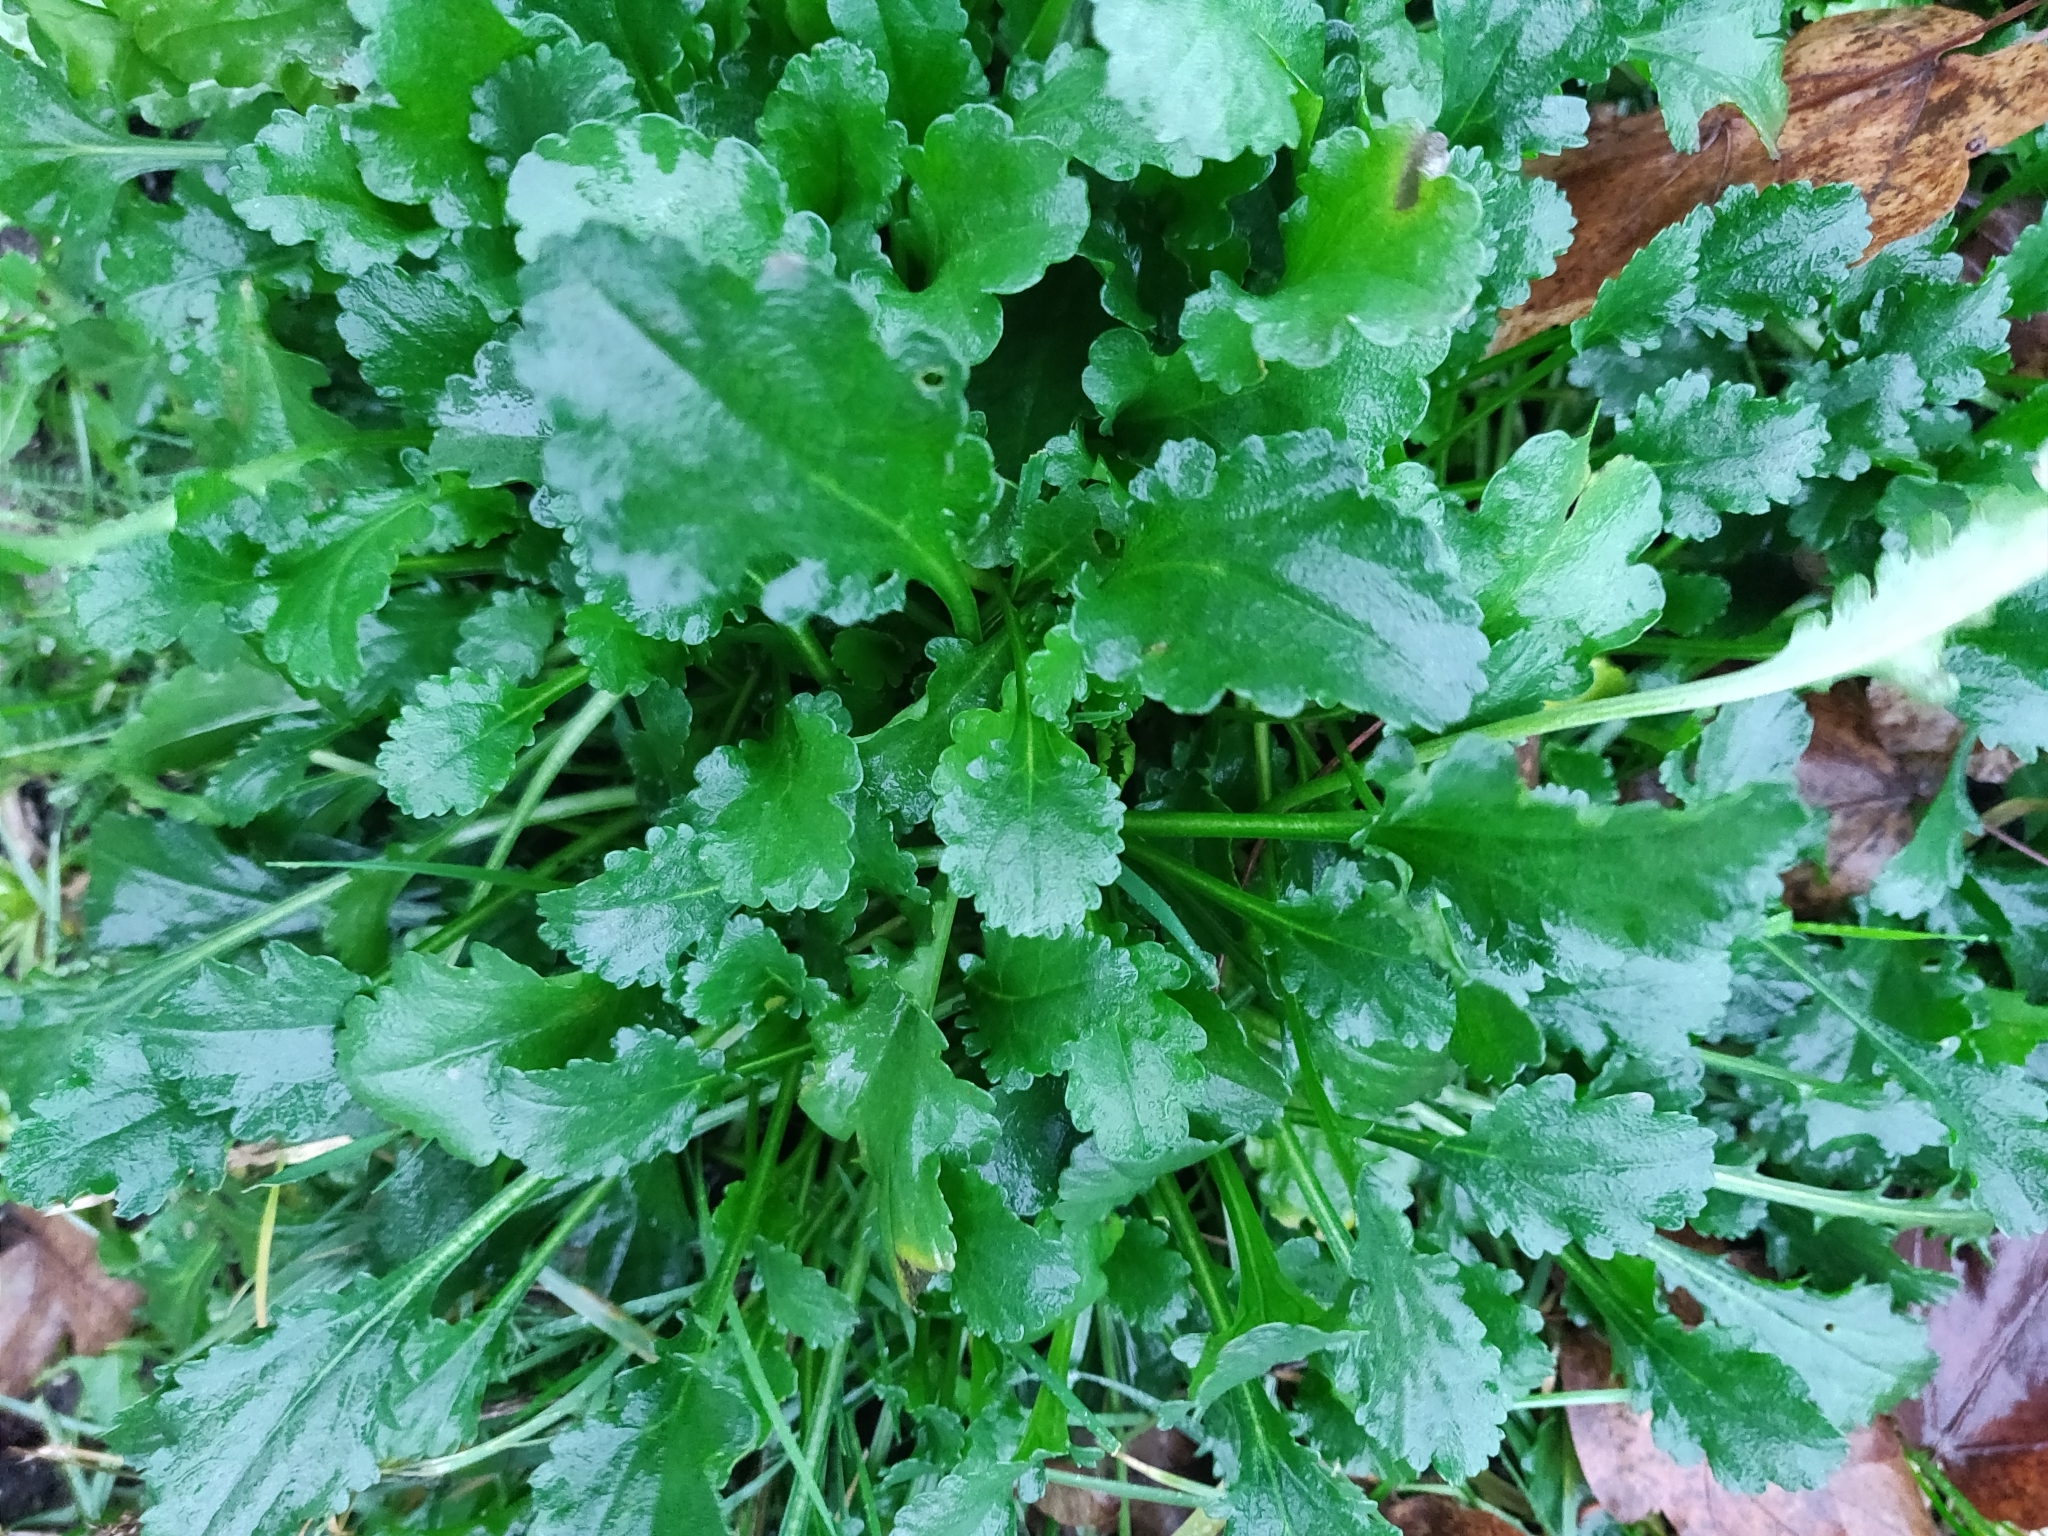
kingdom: Plantae
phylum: Tracheophyta
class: Magnoliopsida
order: Asterales
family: Asteraceae
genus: Leucanthemum
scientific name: Leucanthemum vulgare
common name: Oxeye daisy
